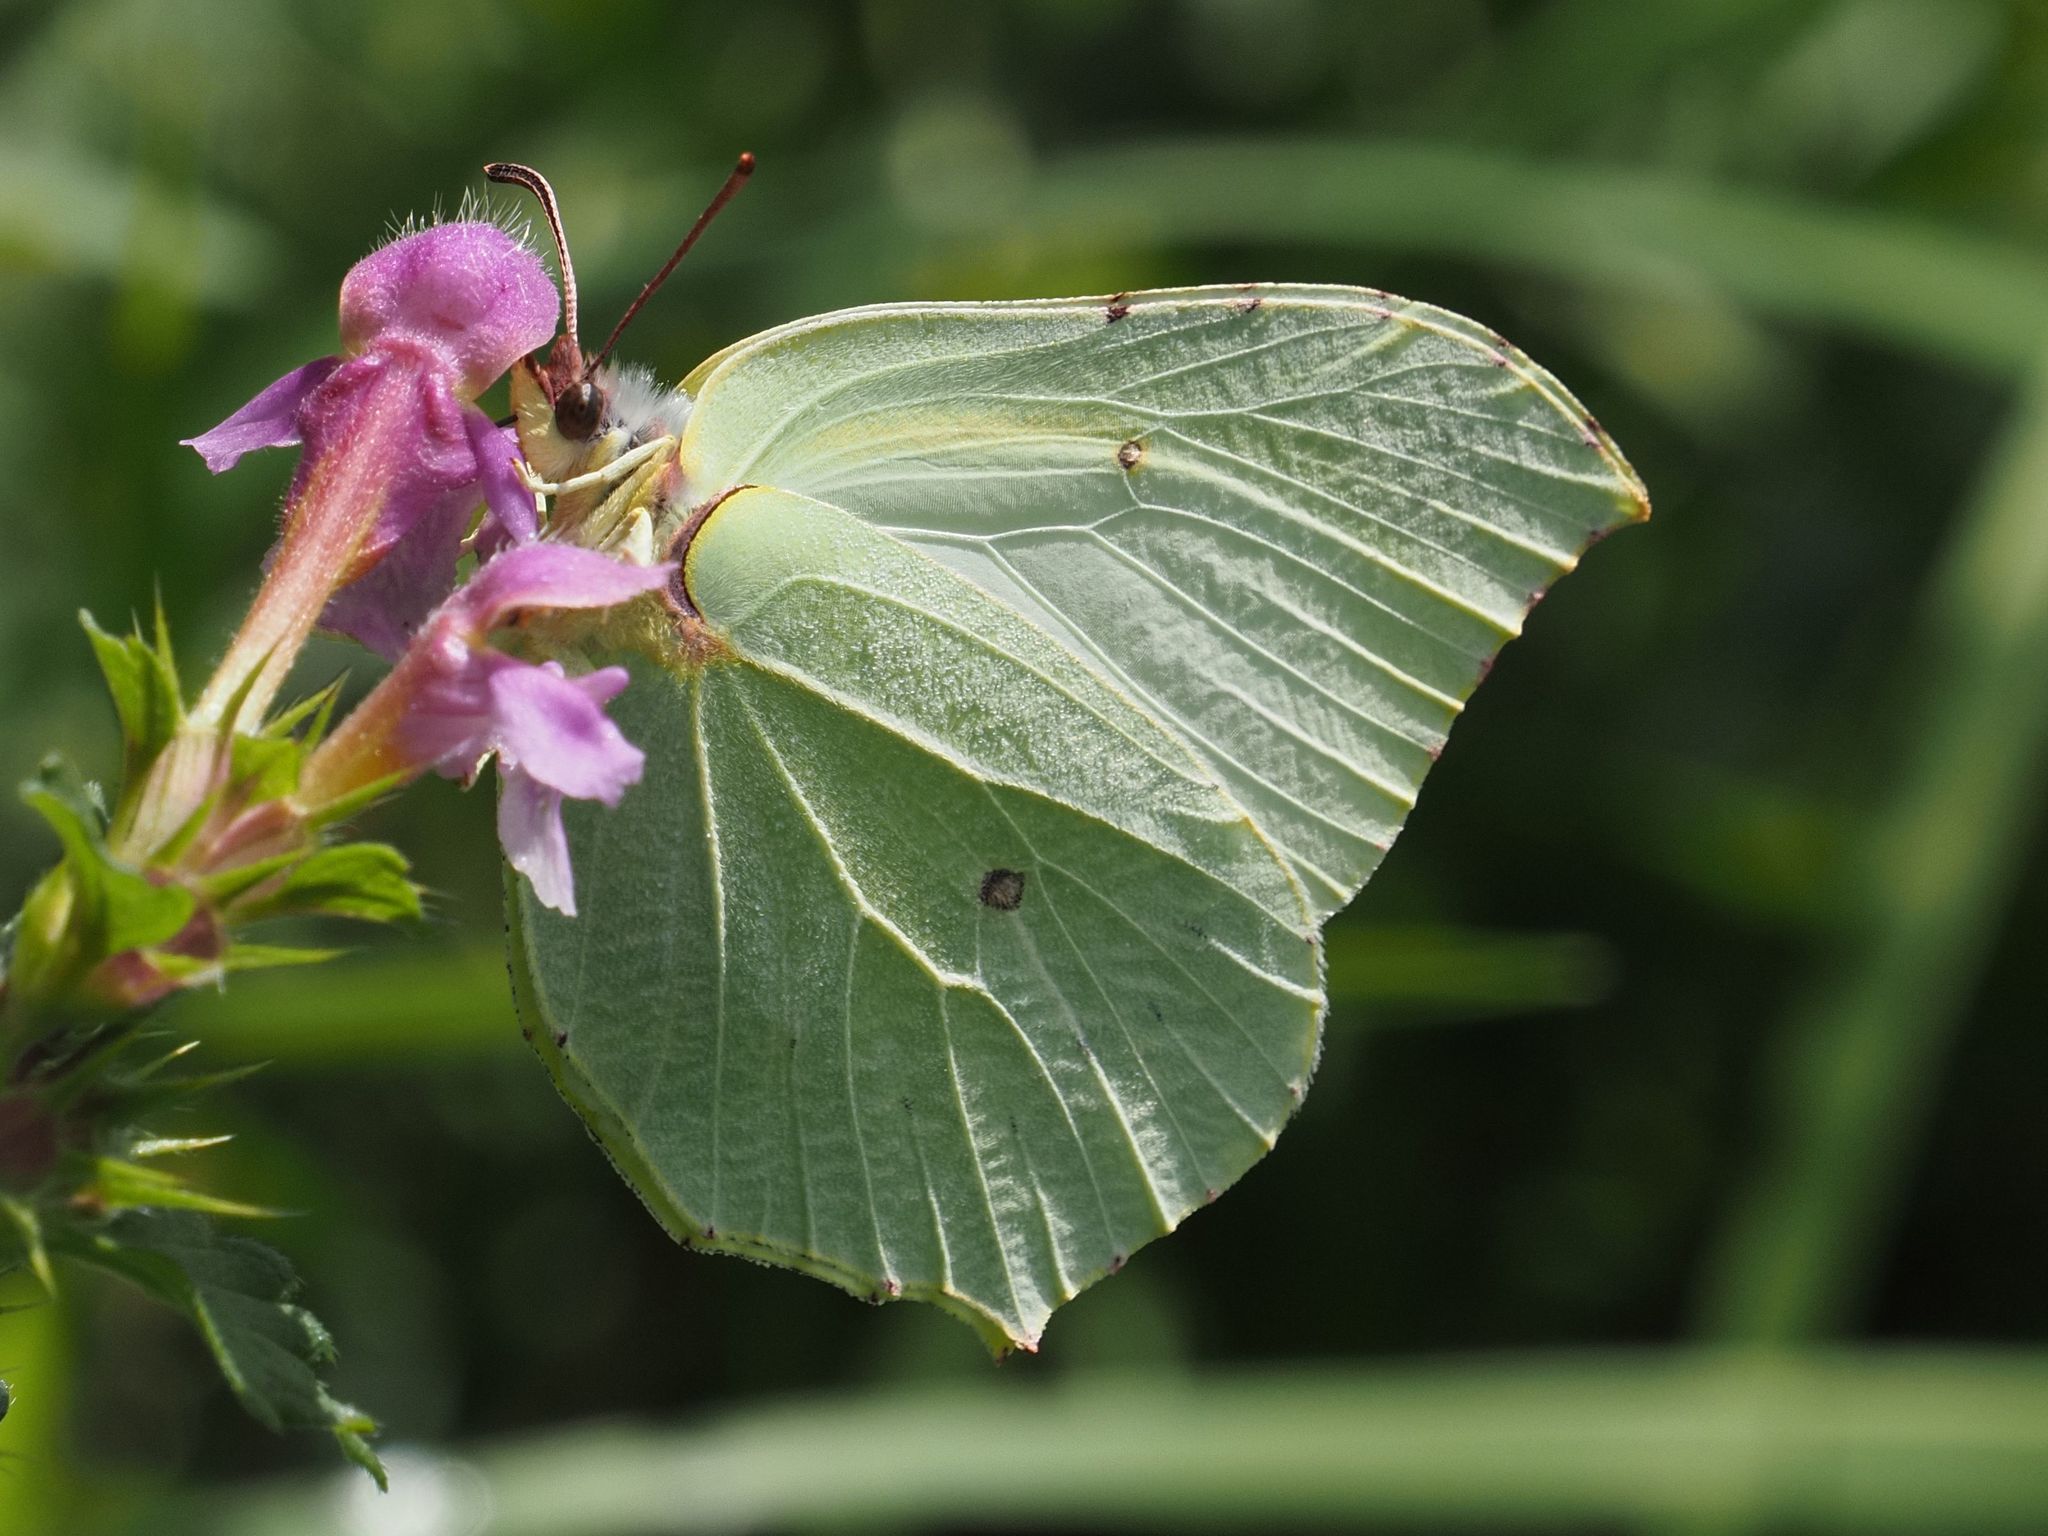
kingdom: Animalia
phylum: Arthropoda
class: Insecta
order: Lepidoptera
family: Pieridae
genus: Gonepteryx
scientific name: Gonepteryx rhamni
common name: Brimstone
